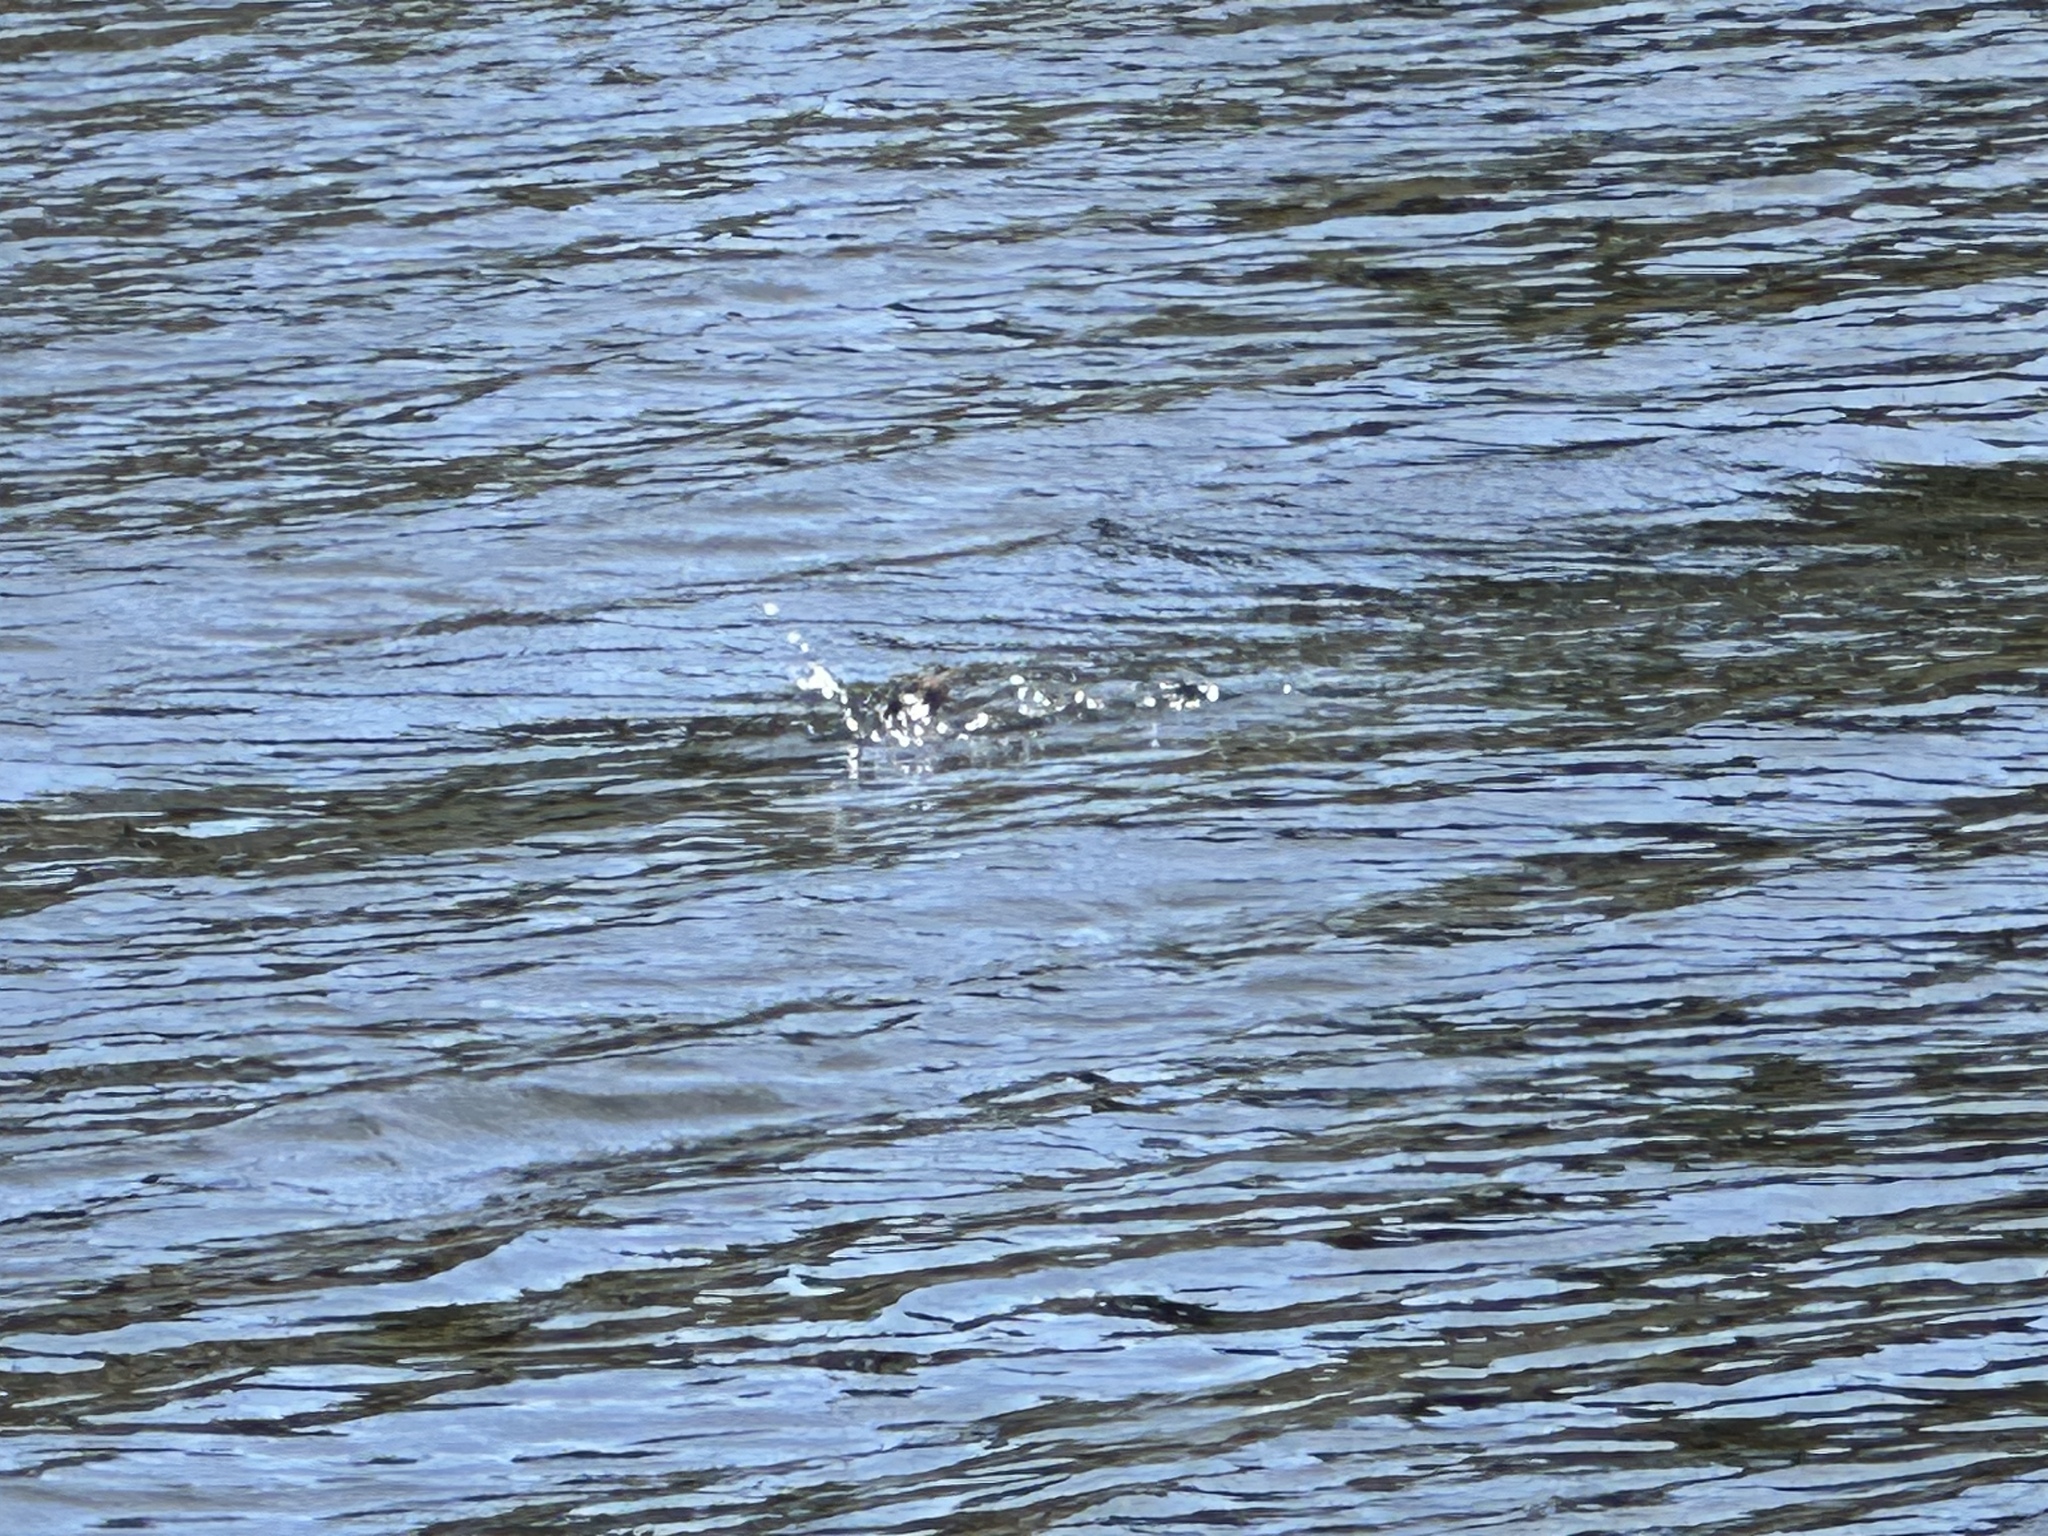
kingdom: Animalia
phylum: Chordata
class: Aves
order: Anseriformes
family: Anatidae
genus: Aythya
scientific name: Aythya affinis
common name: Lesser scaup
